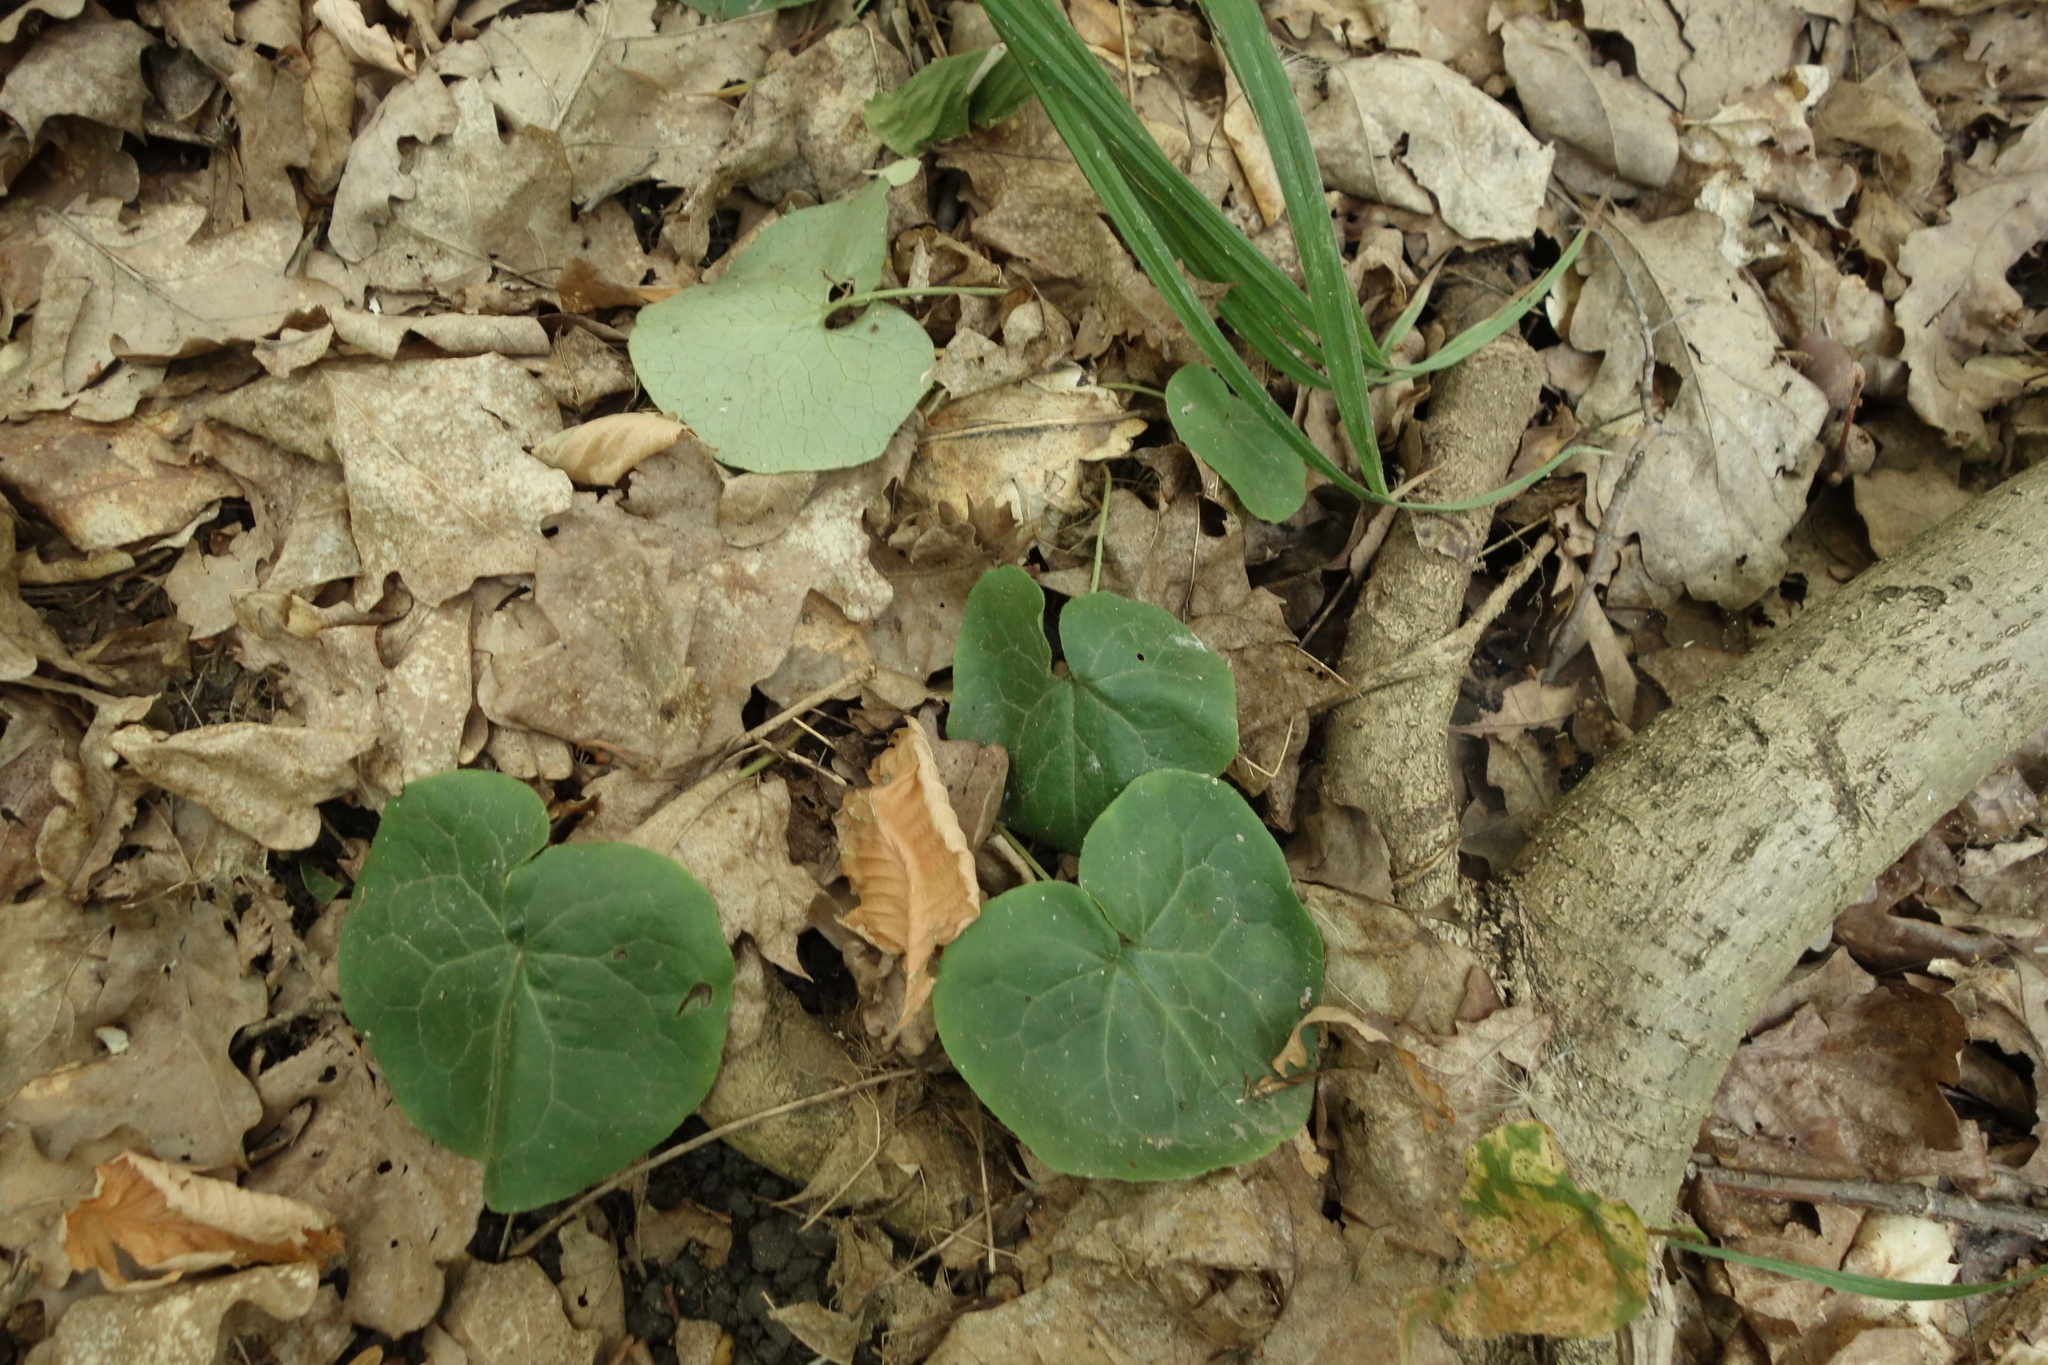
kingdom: Plantae
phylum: Tracheophyta
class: Magnoliopsida
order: Piperales
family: Aristolochiaceae
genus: Asarum
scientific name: Asarum europaeum
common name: Asarabacca
